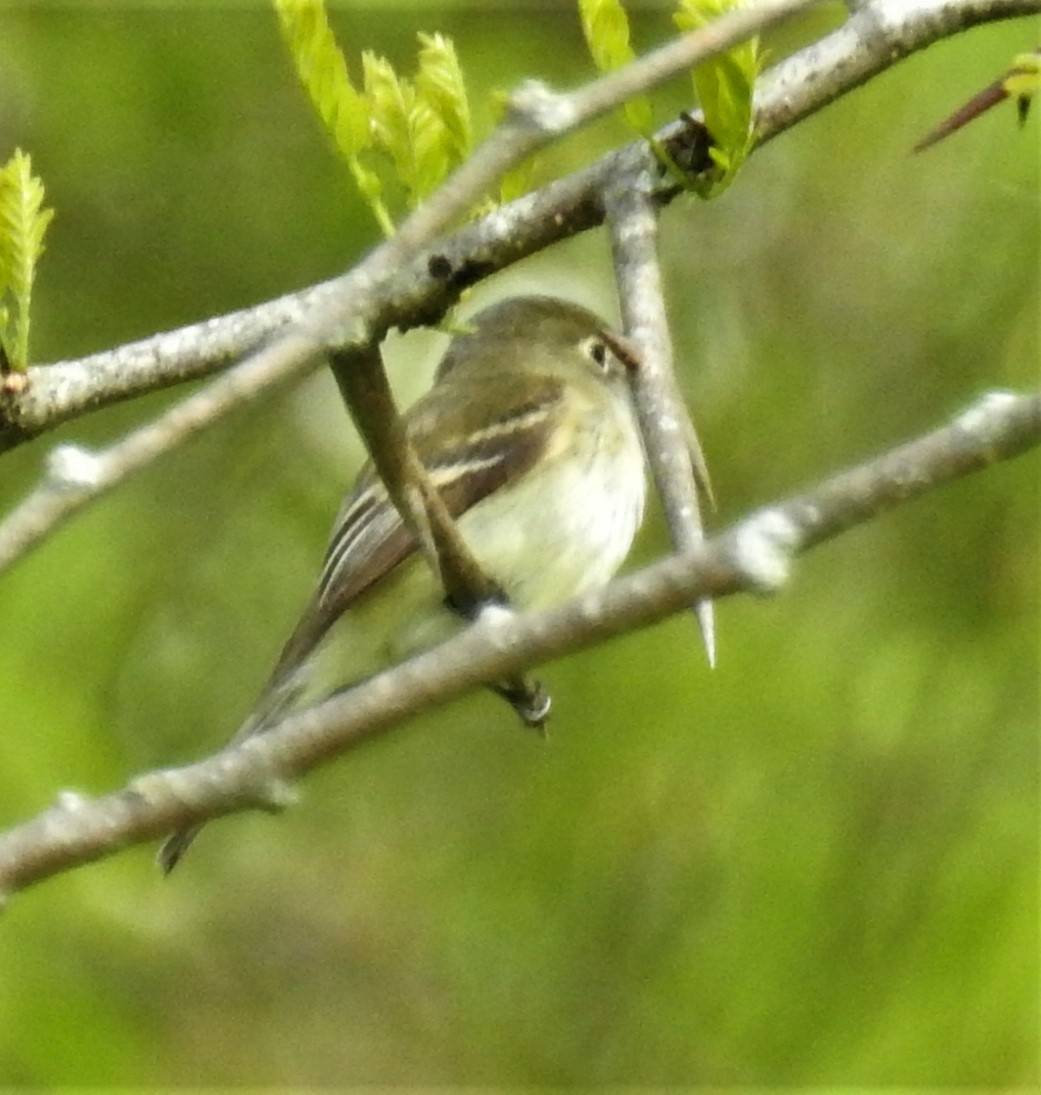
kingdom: Animalia
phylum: Chordata
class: Aves
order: Passeriformes
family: Tyrannidae
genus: Empidonax
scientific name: Empidonax minimus
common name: Least flycatcher
